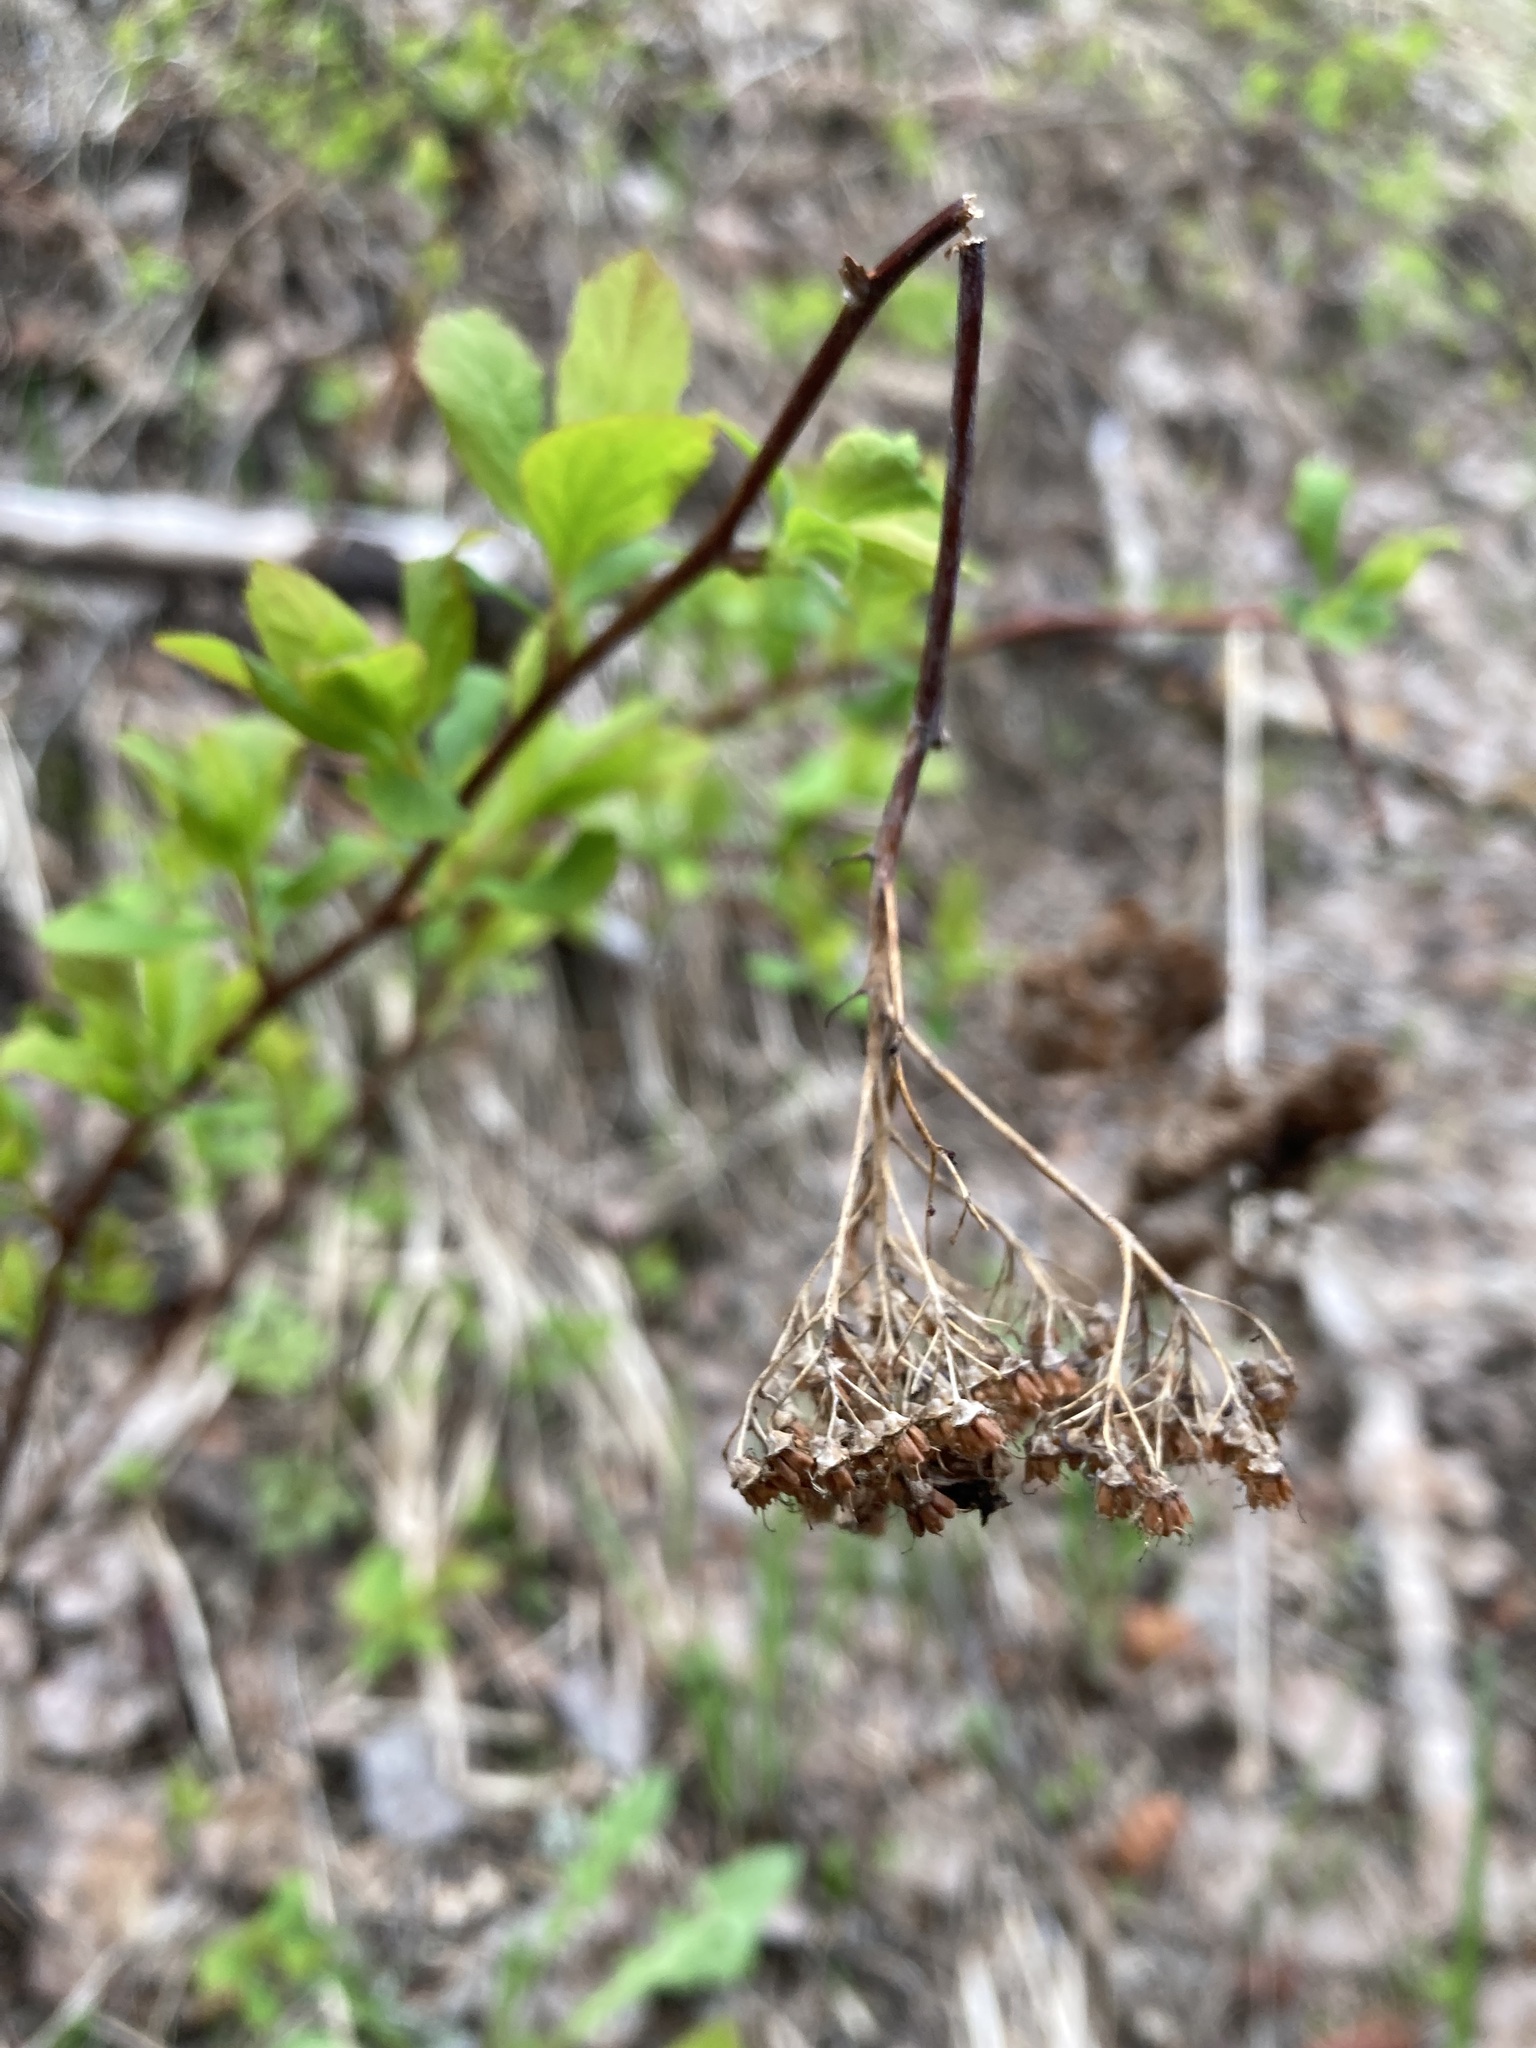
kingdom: Plantae
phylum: Tracheophyta
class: Magnoliopsida
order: Rosales
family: Rosaceae
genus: Spiraea
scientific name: Spiraea lucida
